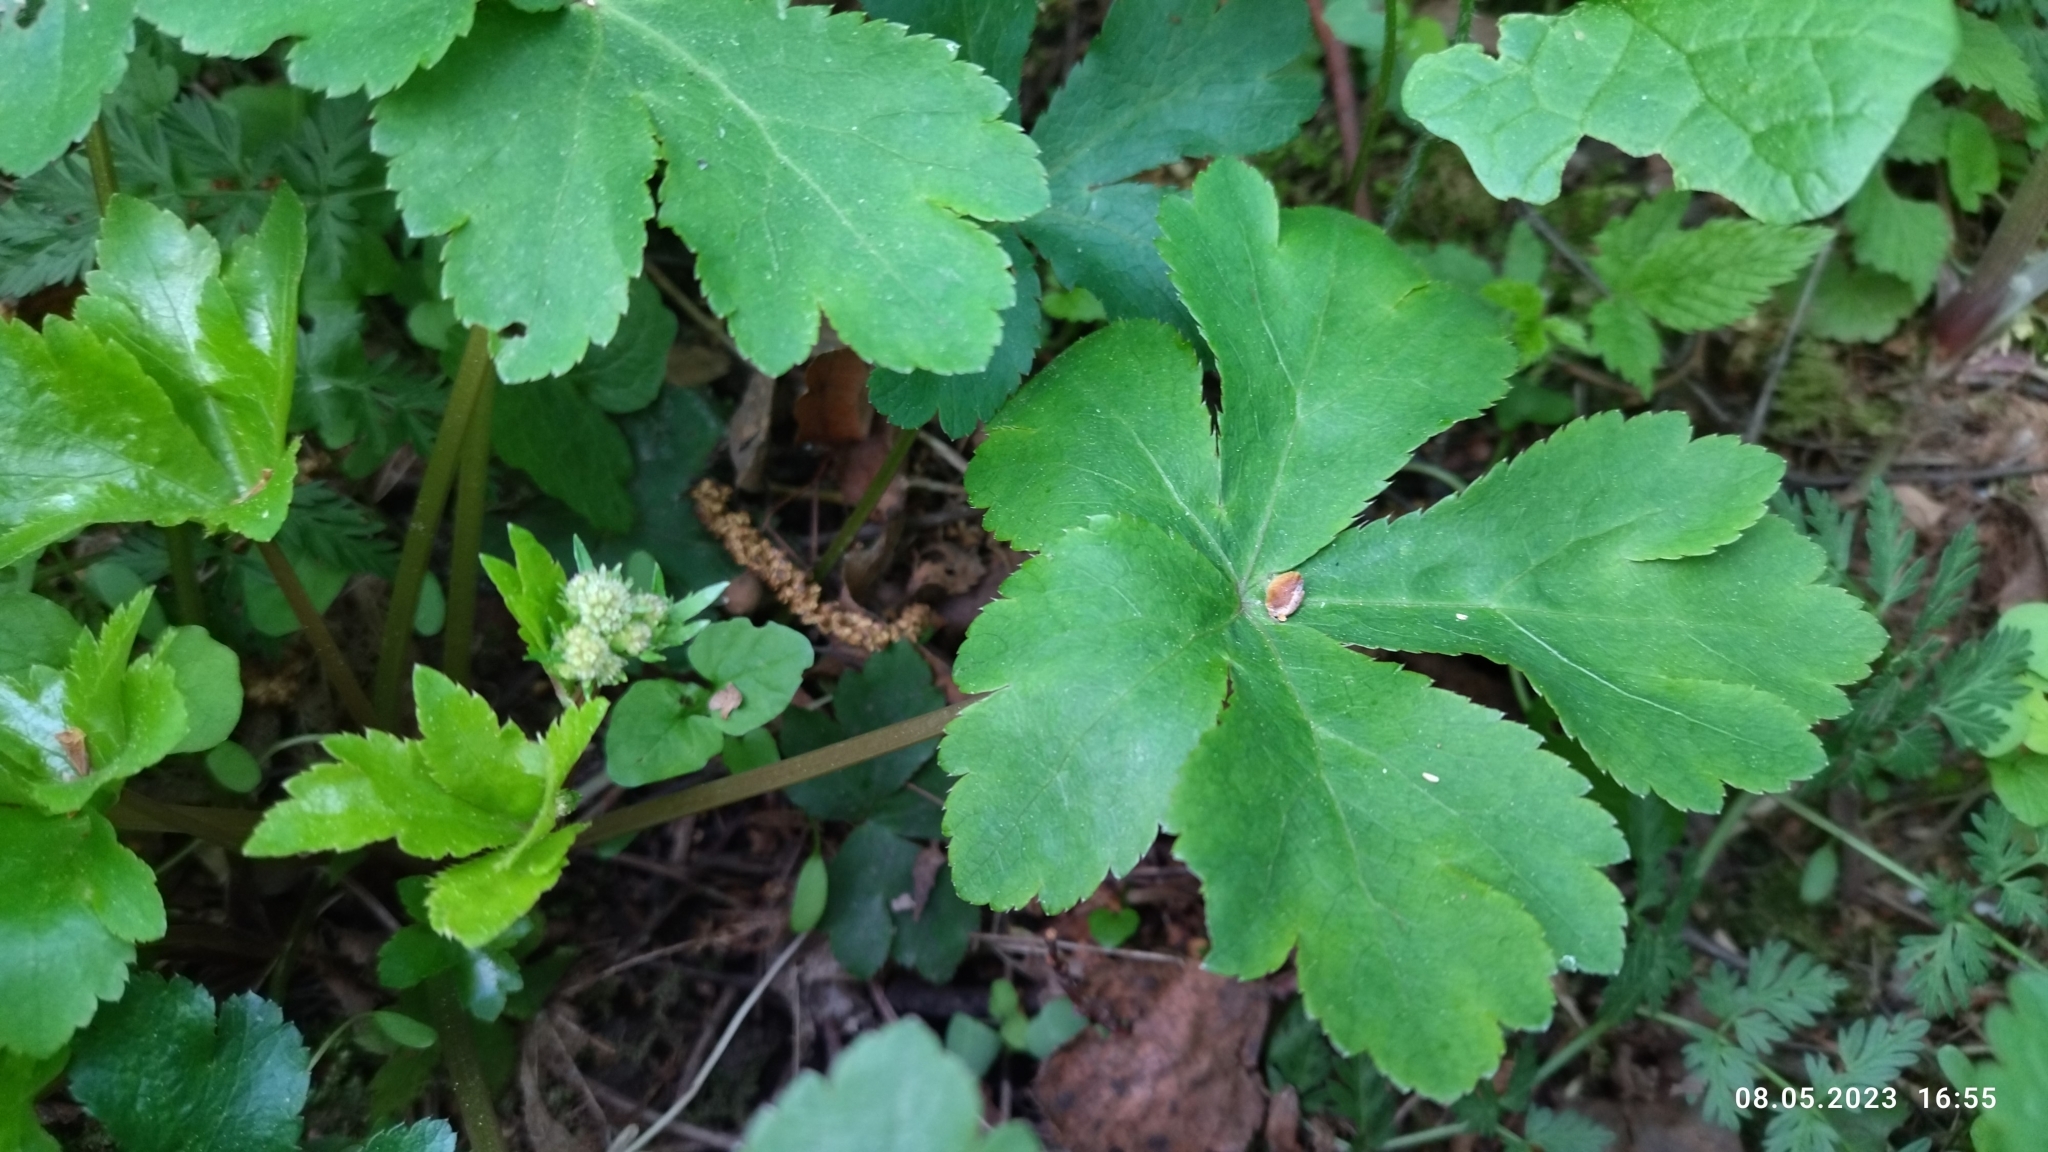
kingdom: Plantae
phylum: Tracheophyta
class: Magnoliopsida
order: Apiales
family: Apiaceae
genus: Sanicula
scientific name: Sanicula europaea
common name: Sanicle
